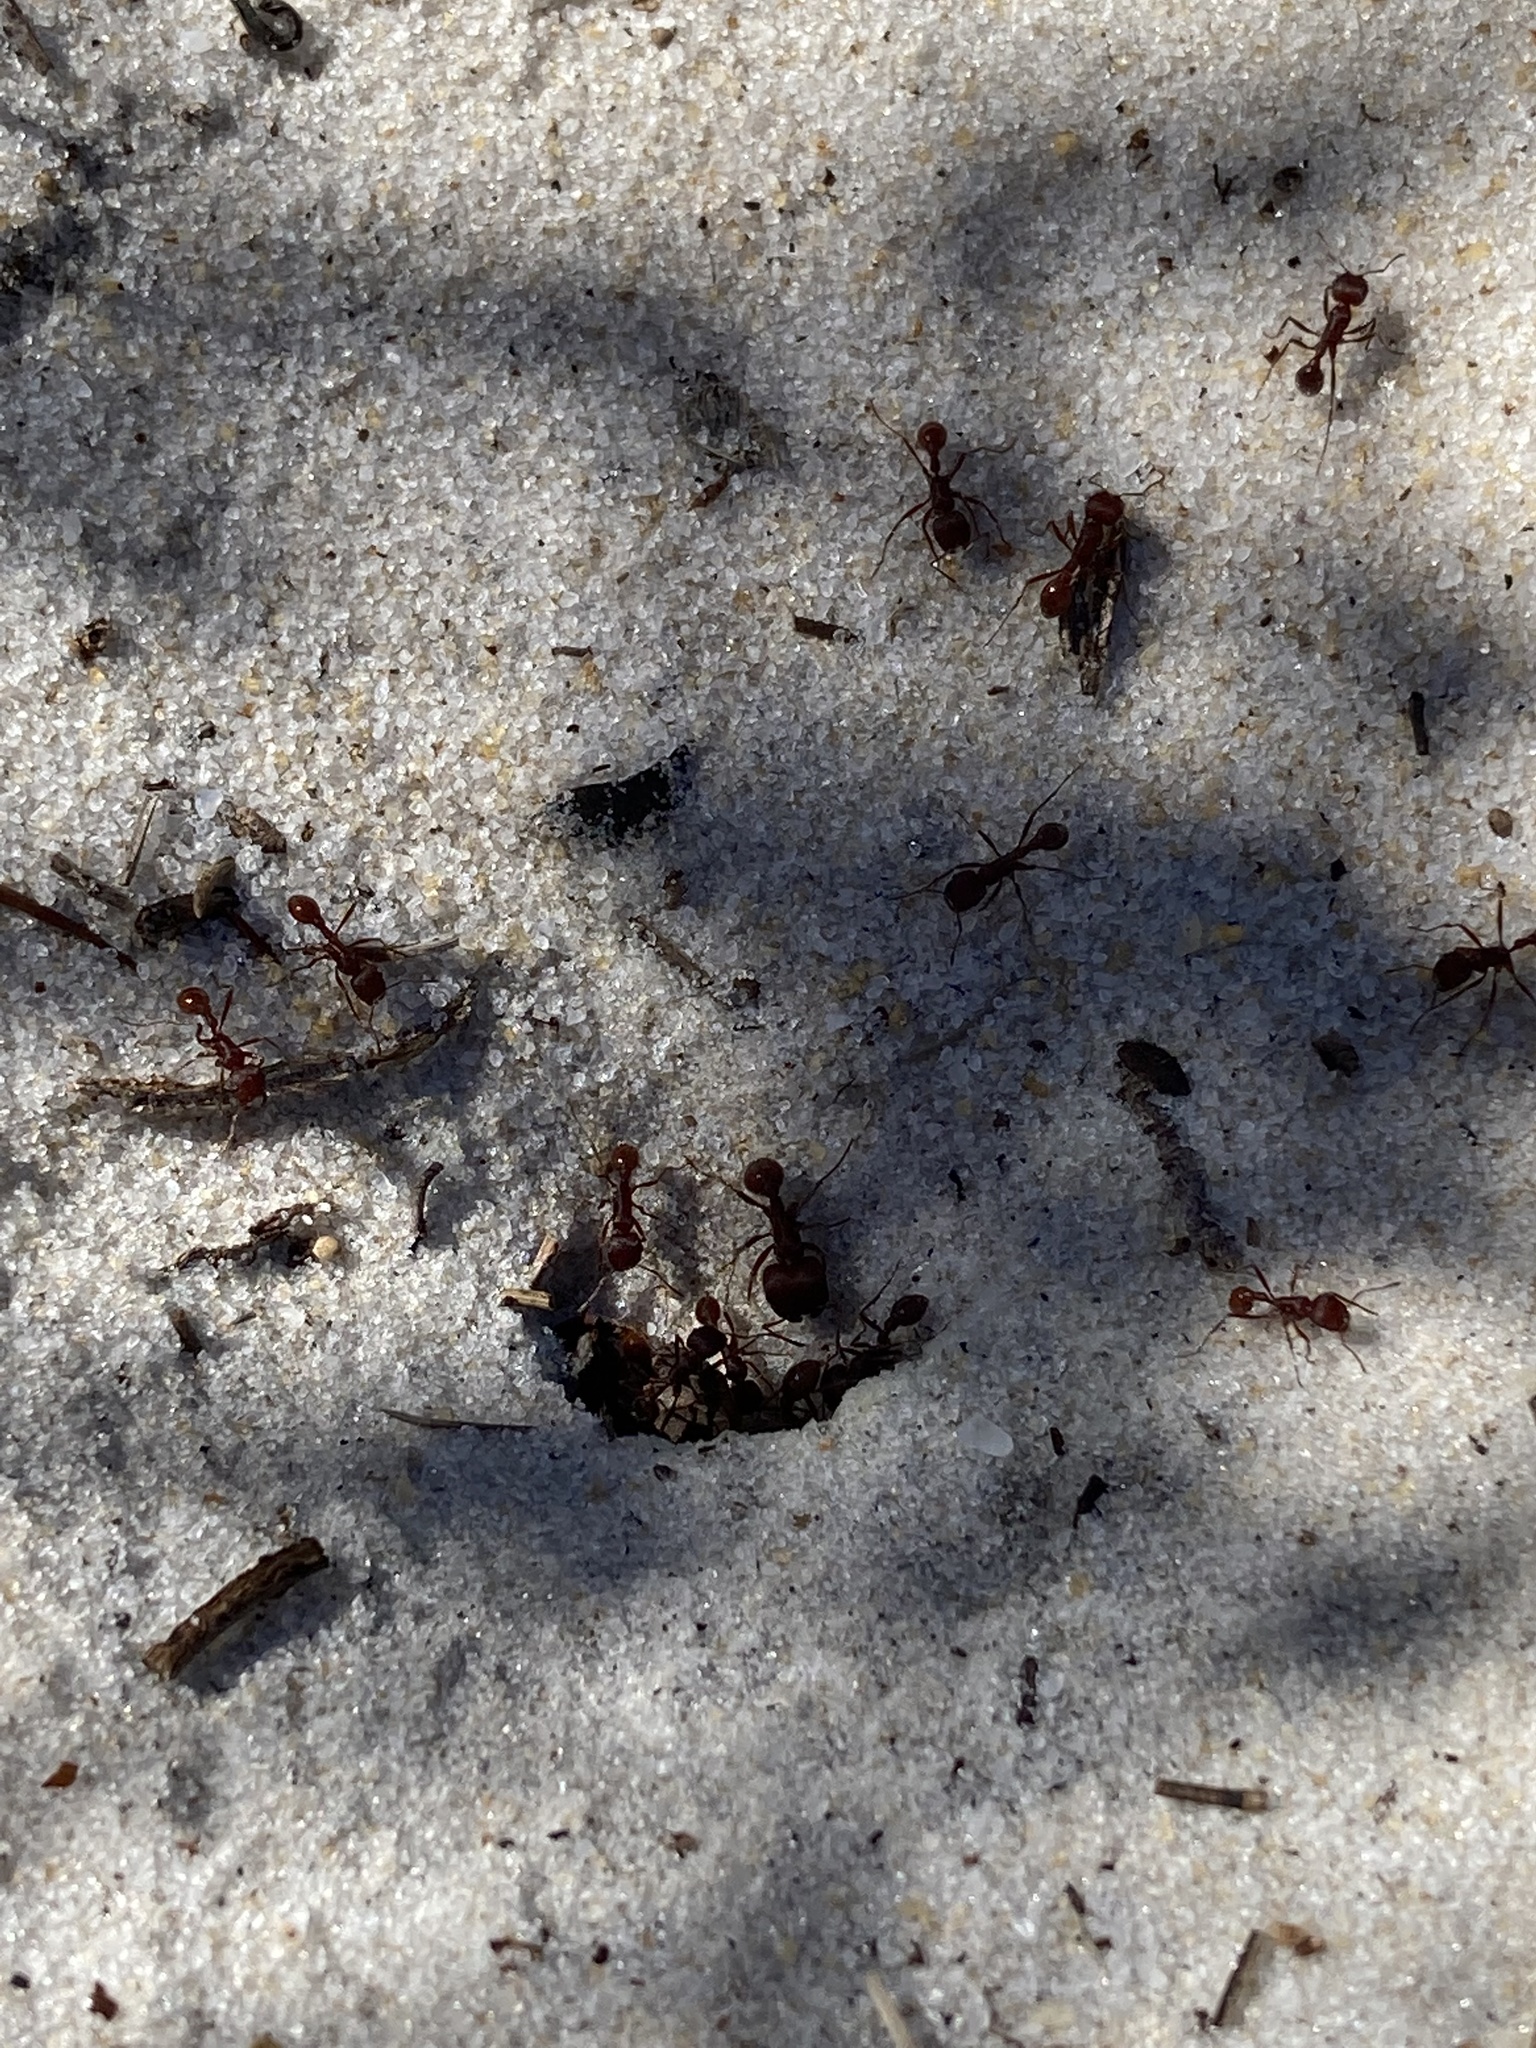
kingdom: Animalia
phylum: Arthropoda
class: Insecta
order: Hymenoptera
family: Formicidae
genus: Pogonomyrmex
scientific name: Pogonomyrmex badius
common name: Florida harvester ant
